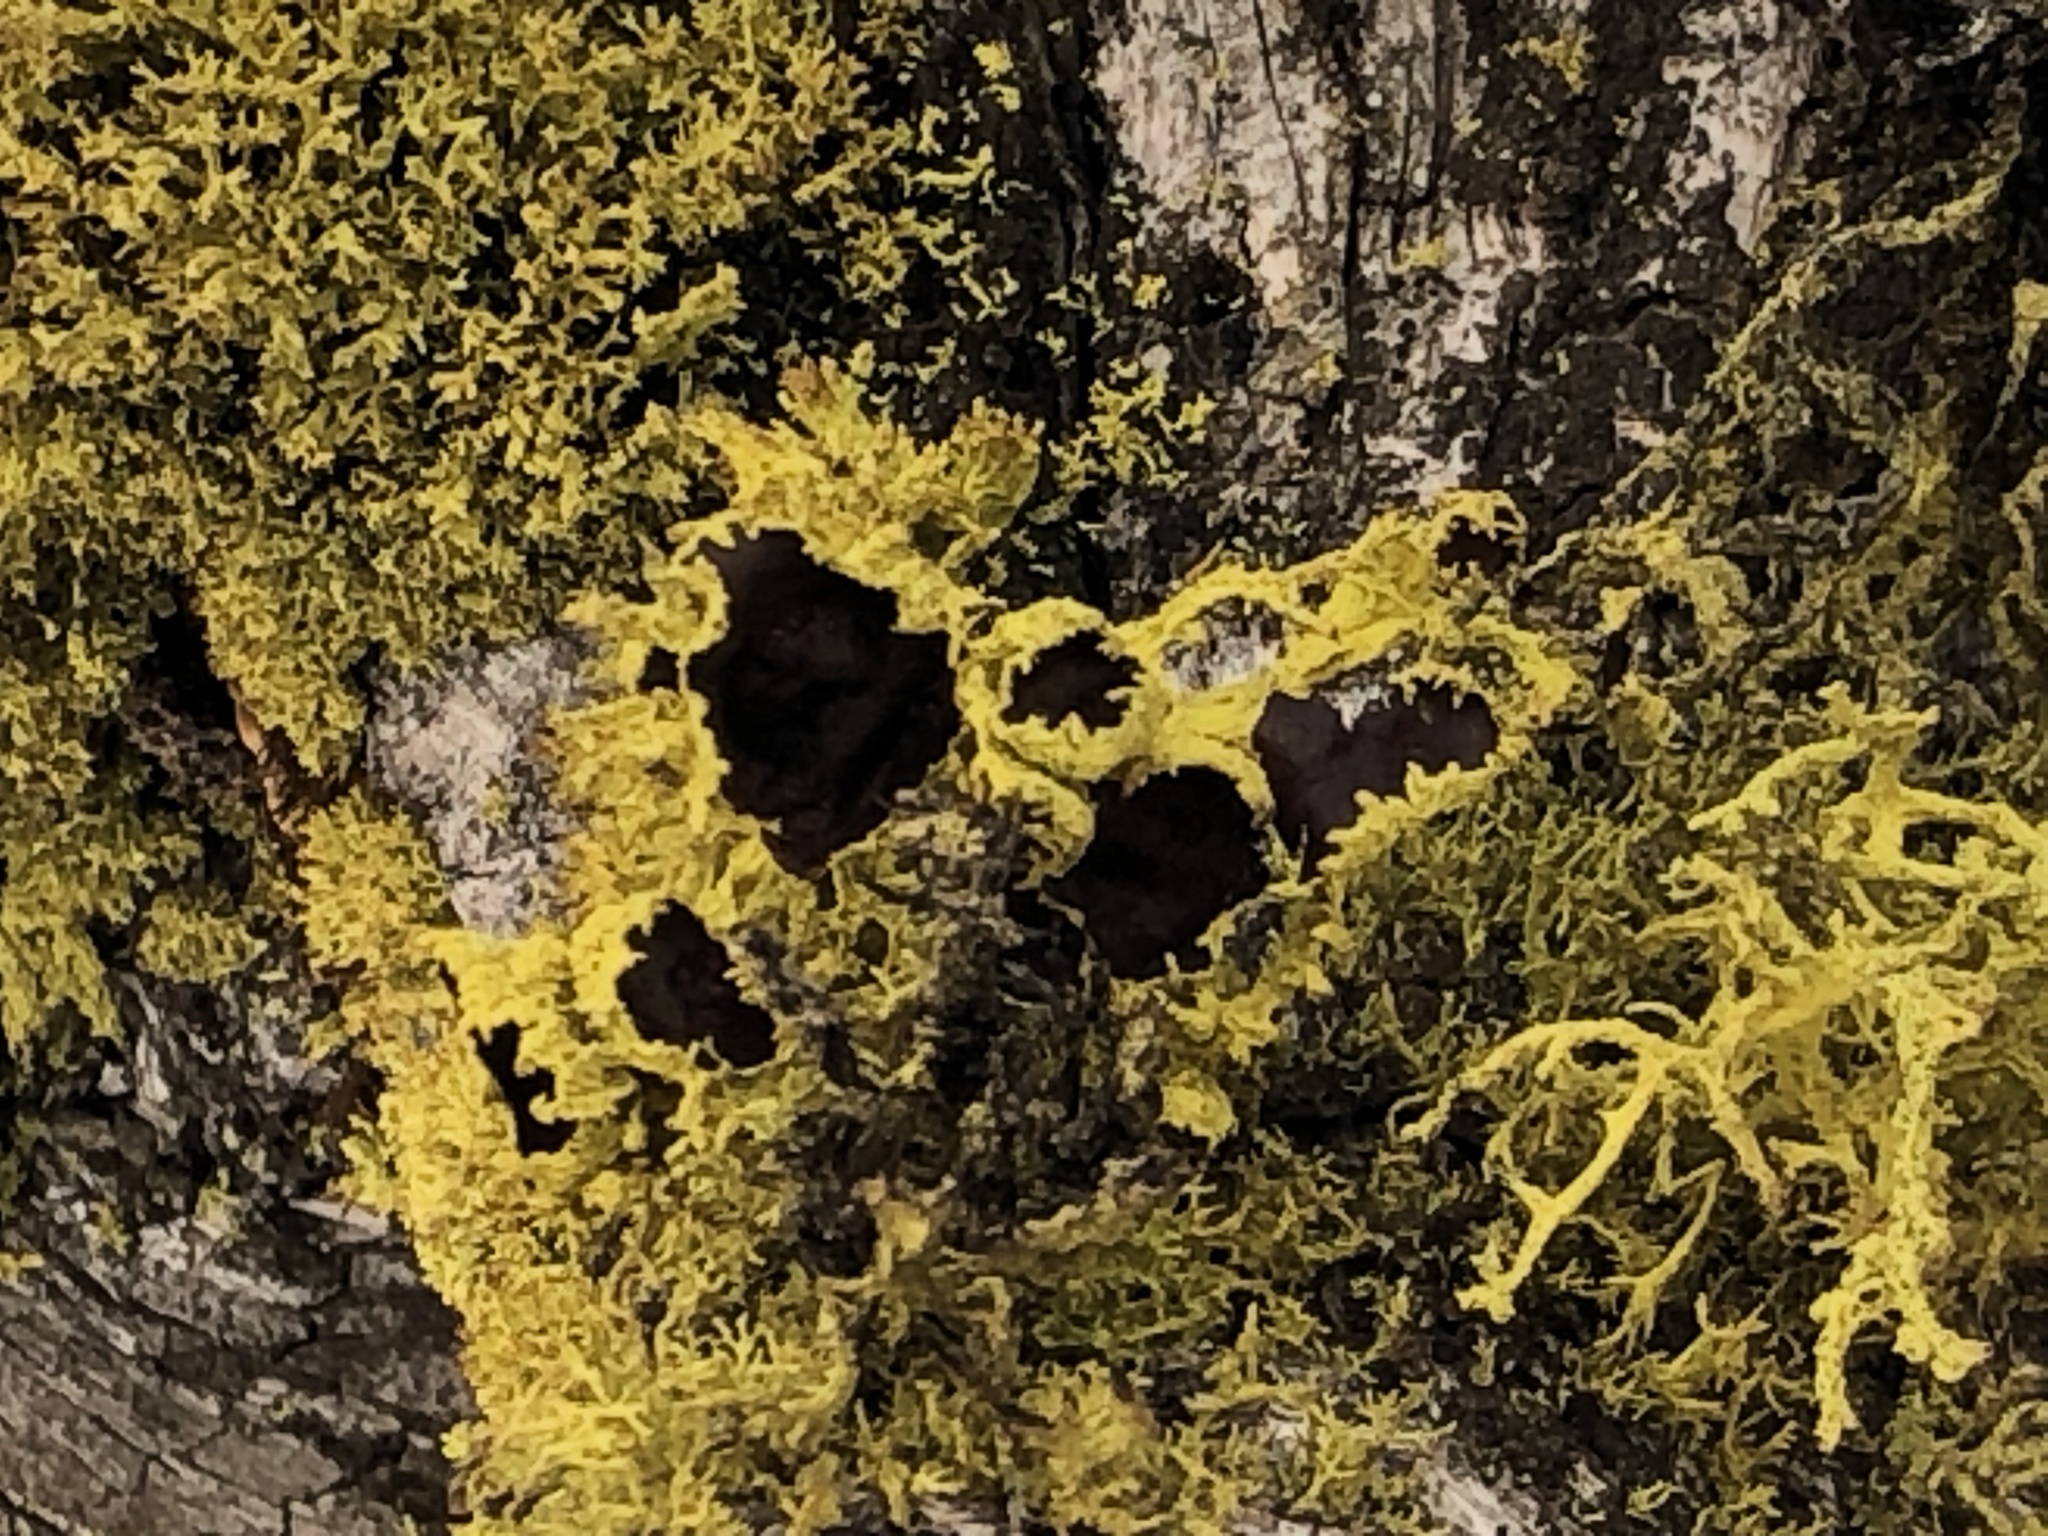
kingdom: Fungi
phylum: Ascomycota
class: Lecanoromycetes
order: Lecanorales
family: Parmeliaceae
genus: Letharia
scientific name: Letharia columbiana
